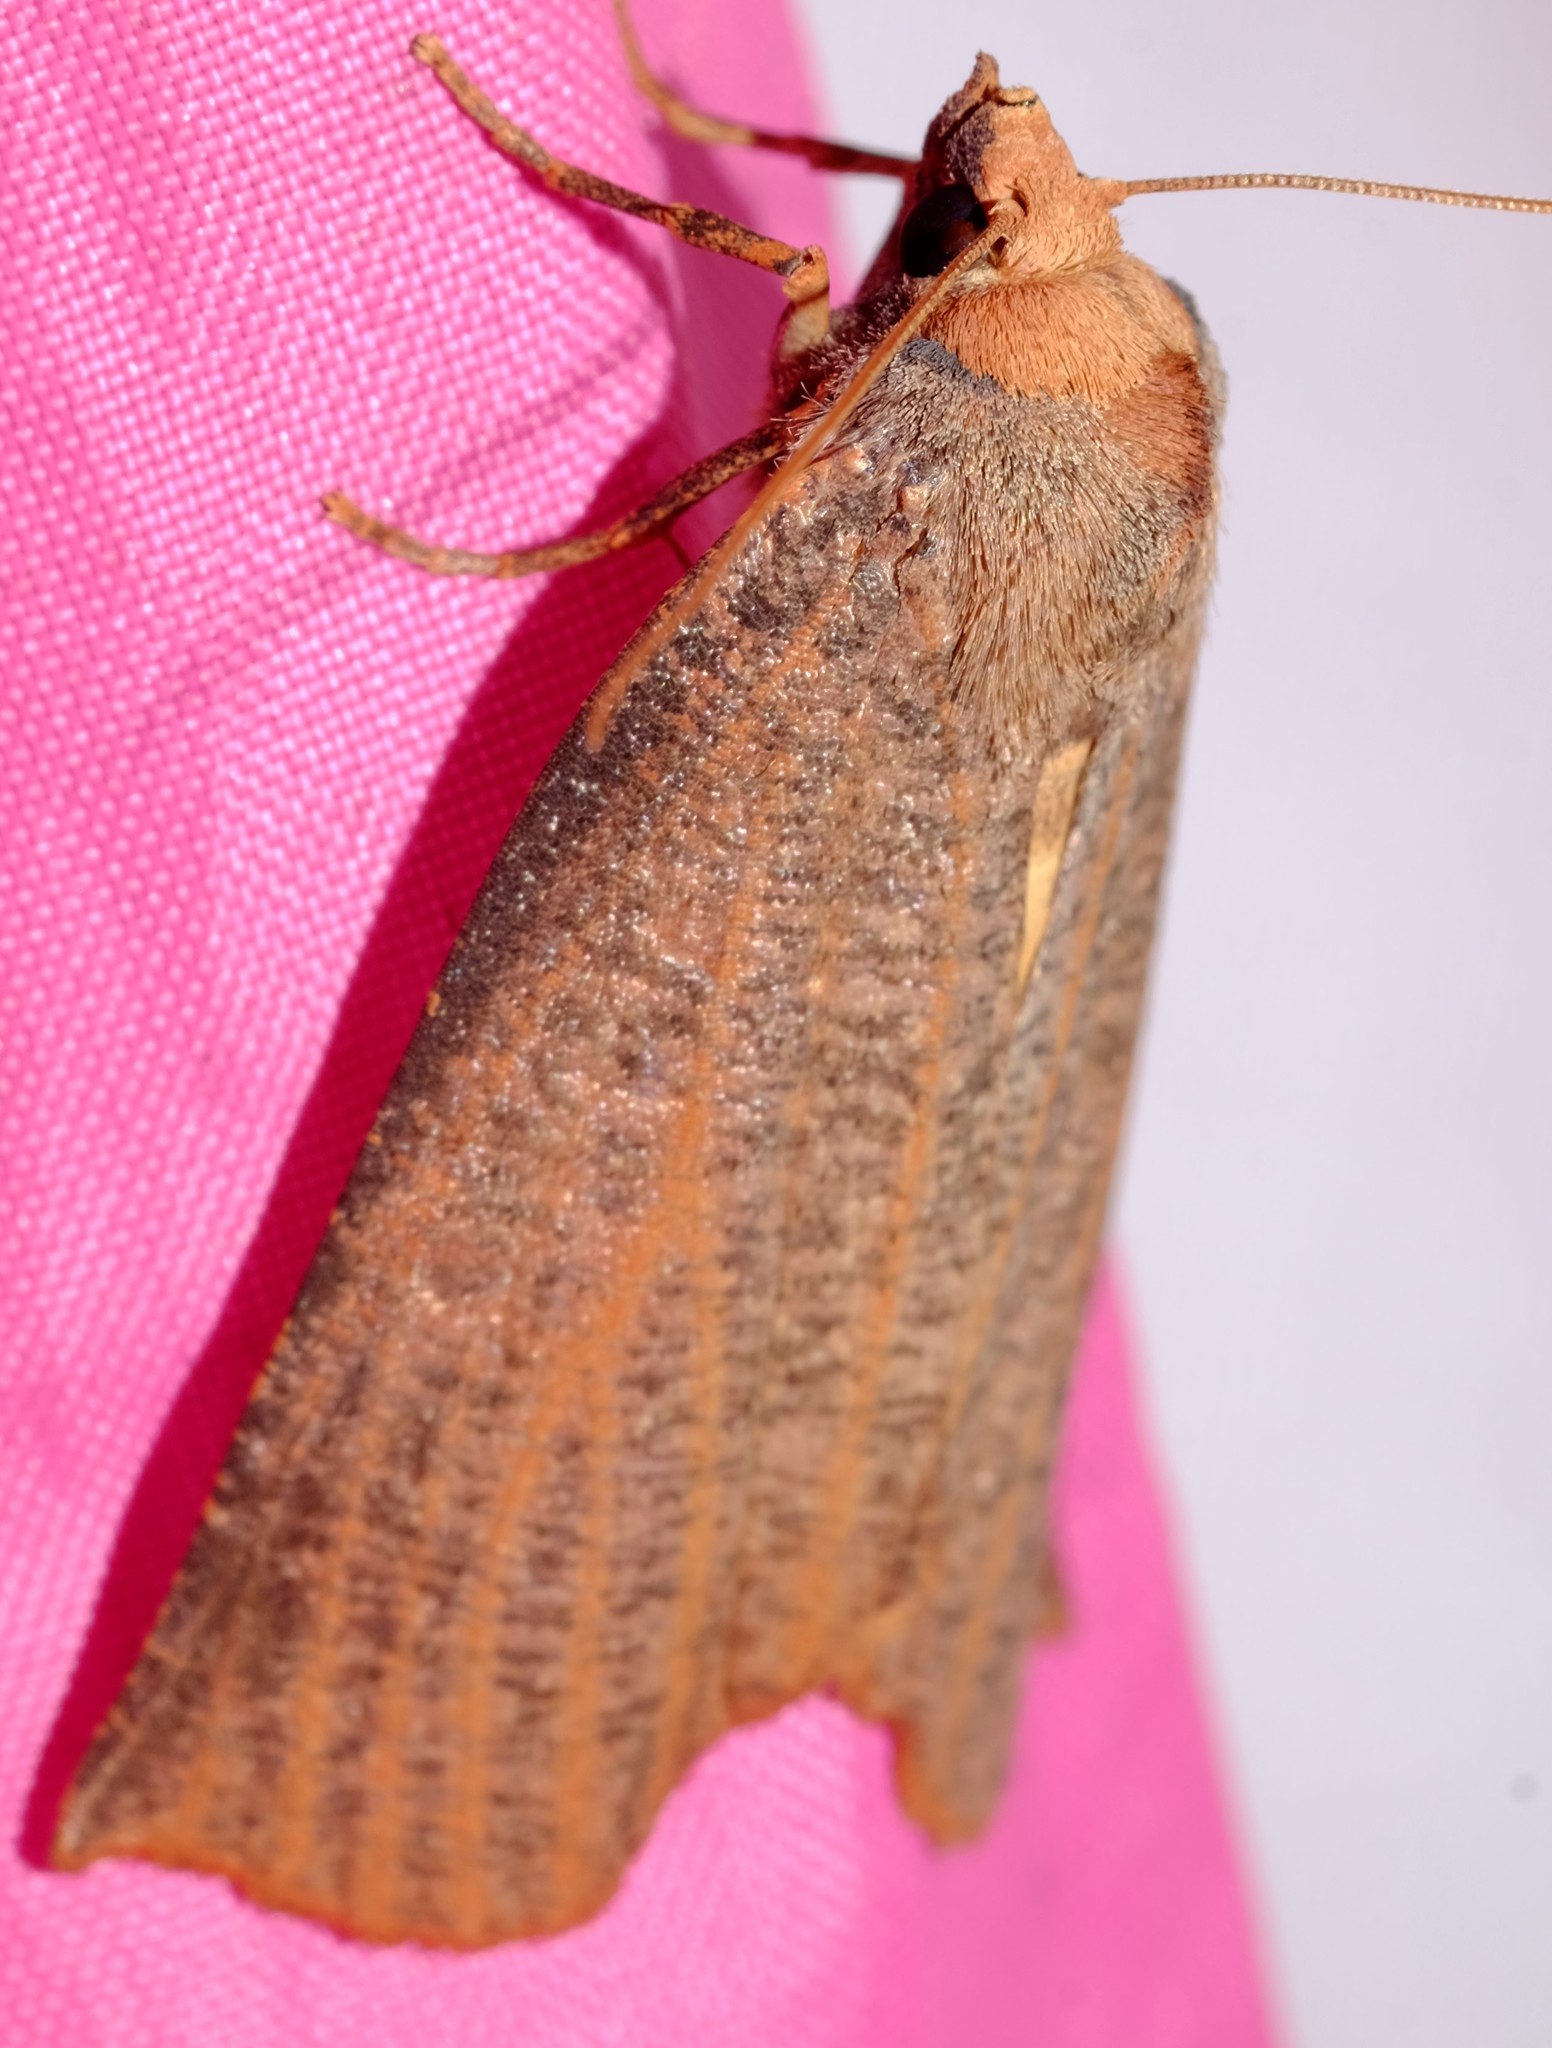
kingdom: Animalia
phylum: Arthropoda
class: Insecta
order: Lepidoptera
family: Geometridae
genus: Fisera
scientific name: Fisera eribola
